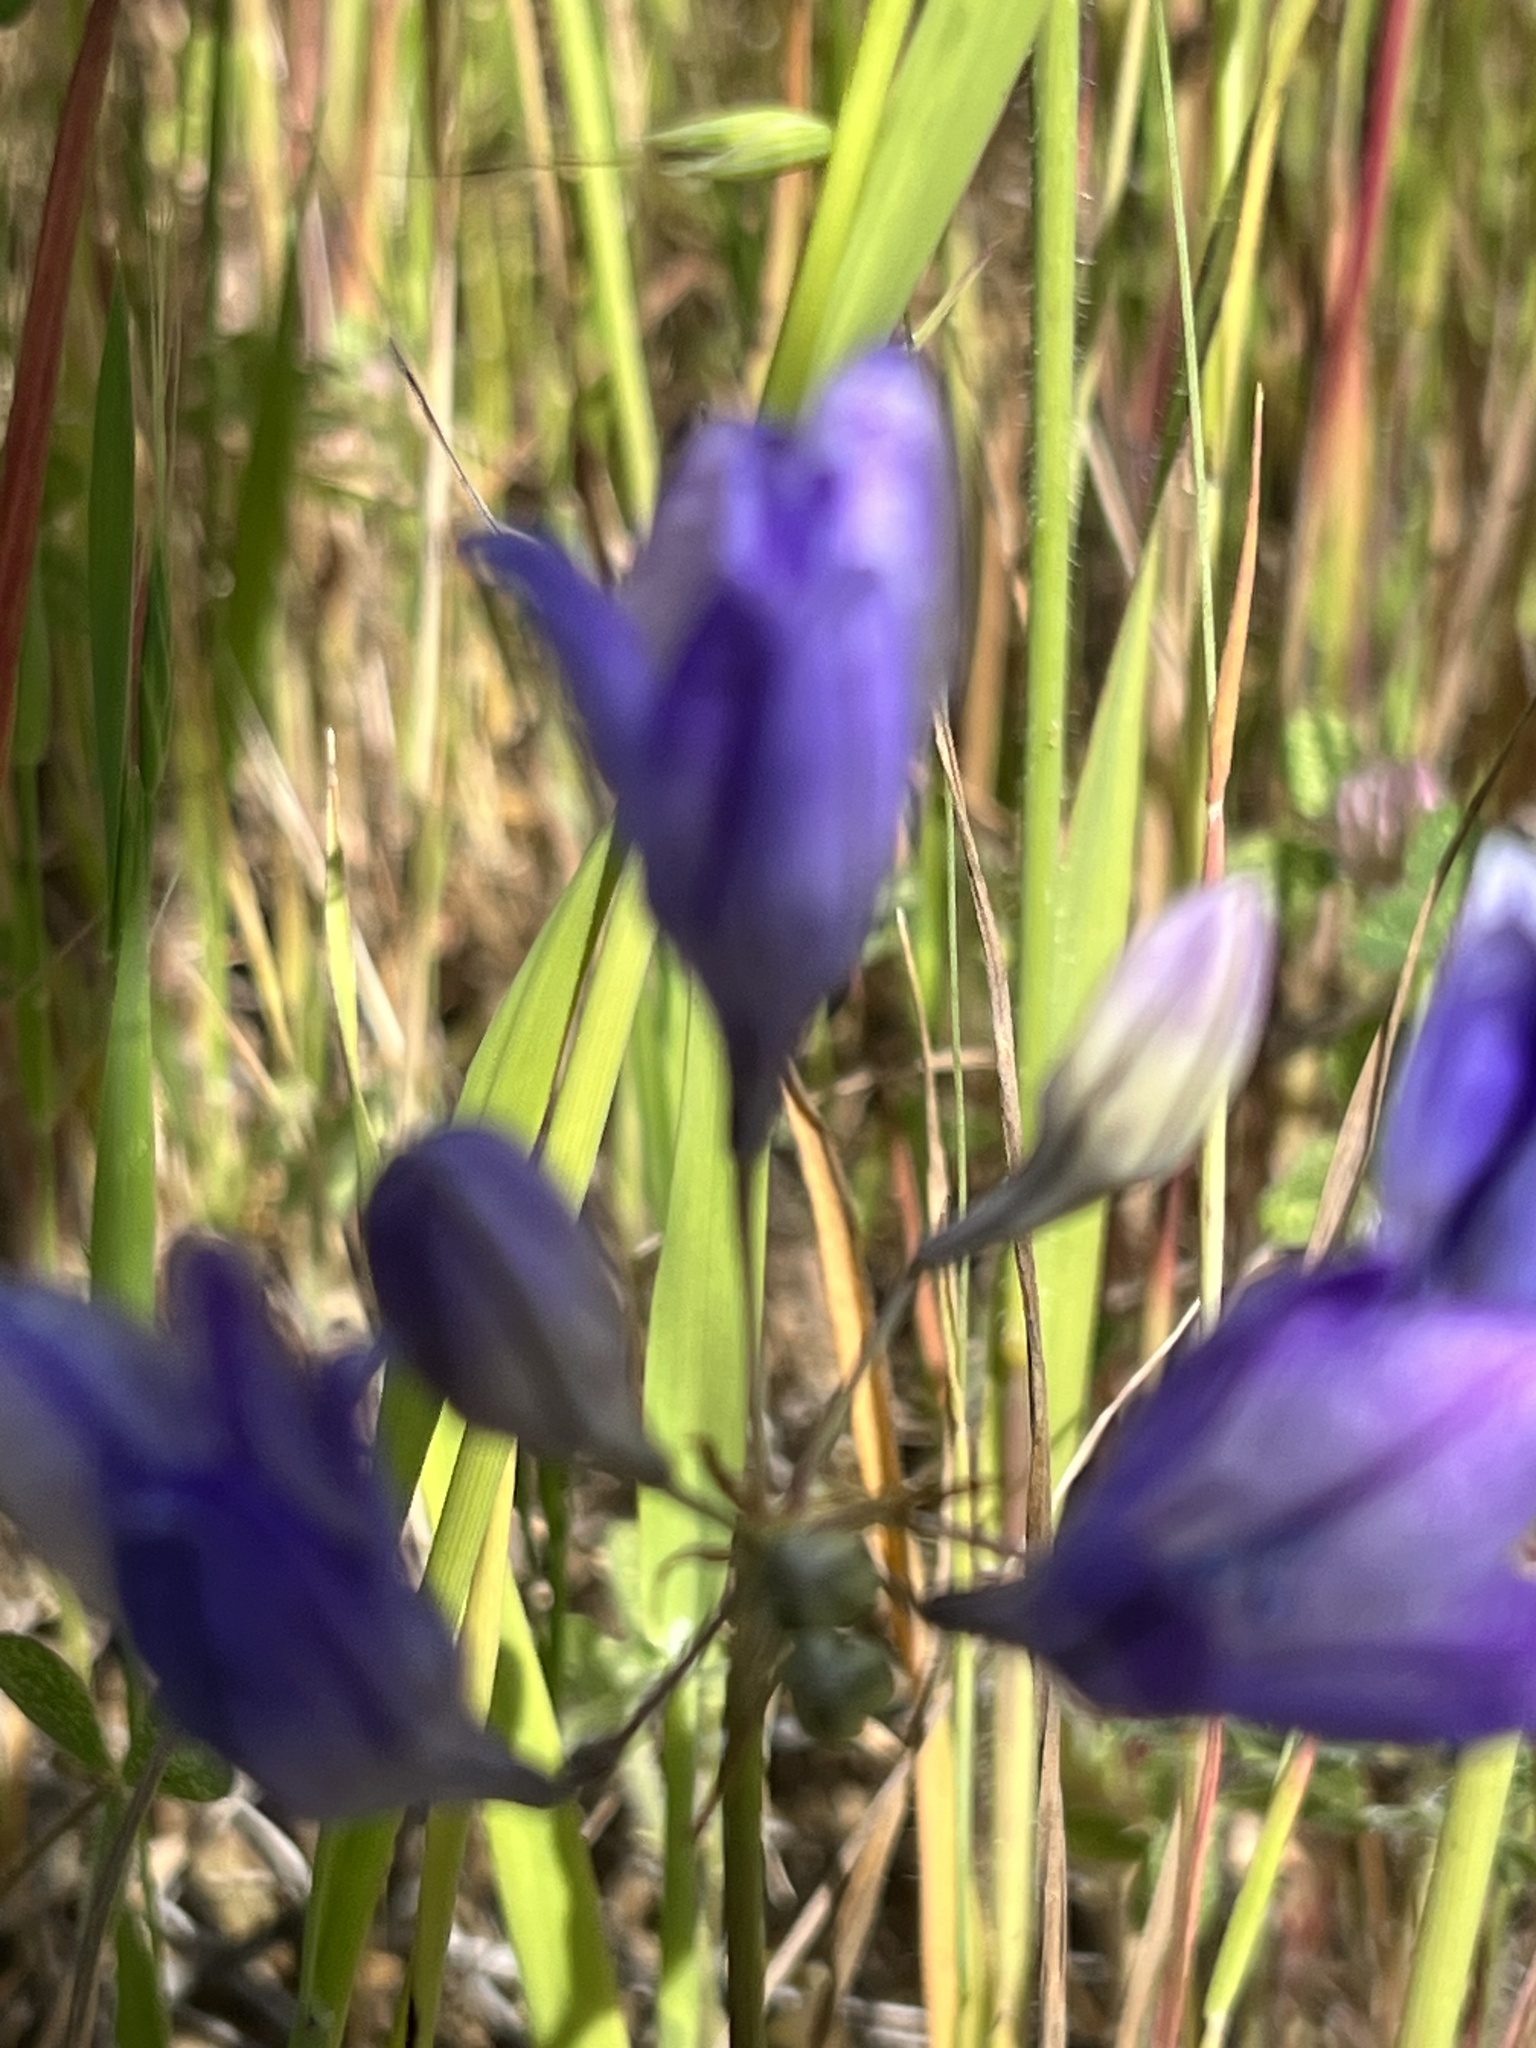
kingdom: Plantae
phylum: Tracheophyta
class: Liliopsida
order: Asparagales
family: Asparagaceae
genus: Triteleia
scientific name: Triteleia laxa
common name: Triplet-lily
